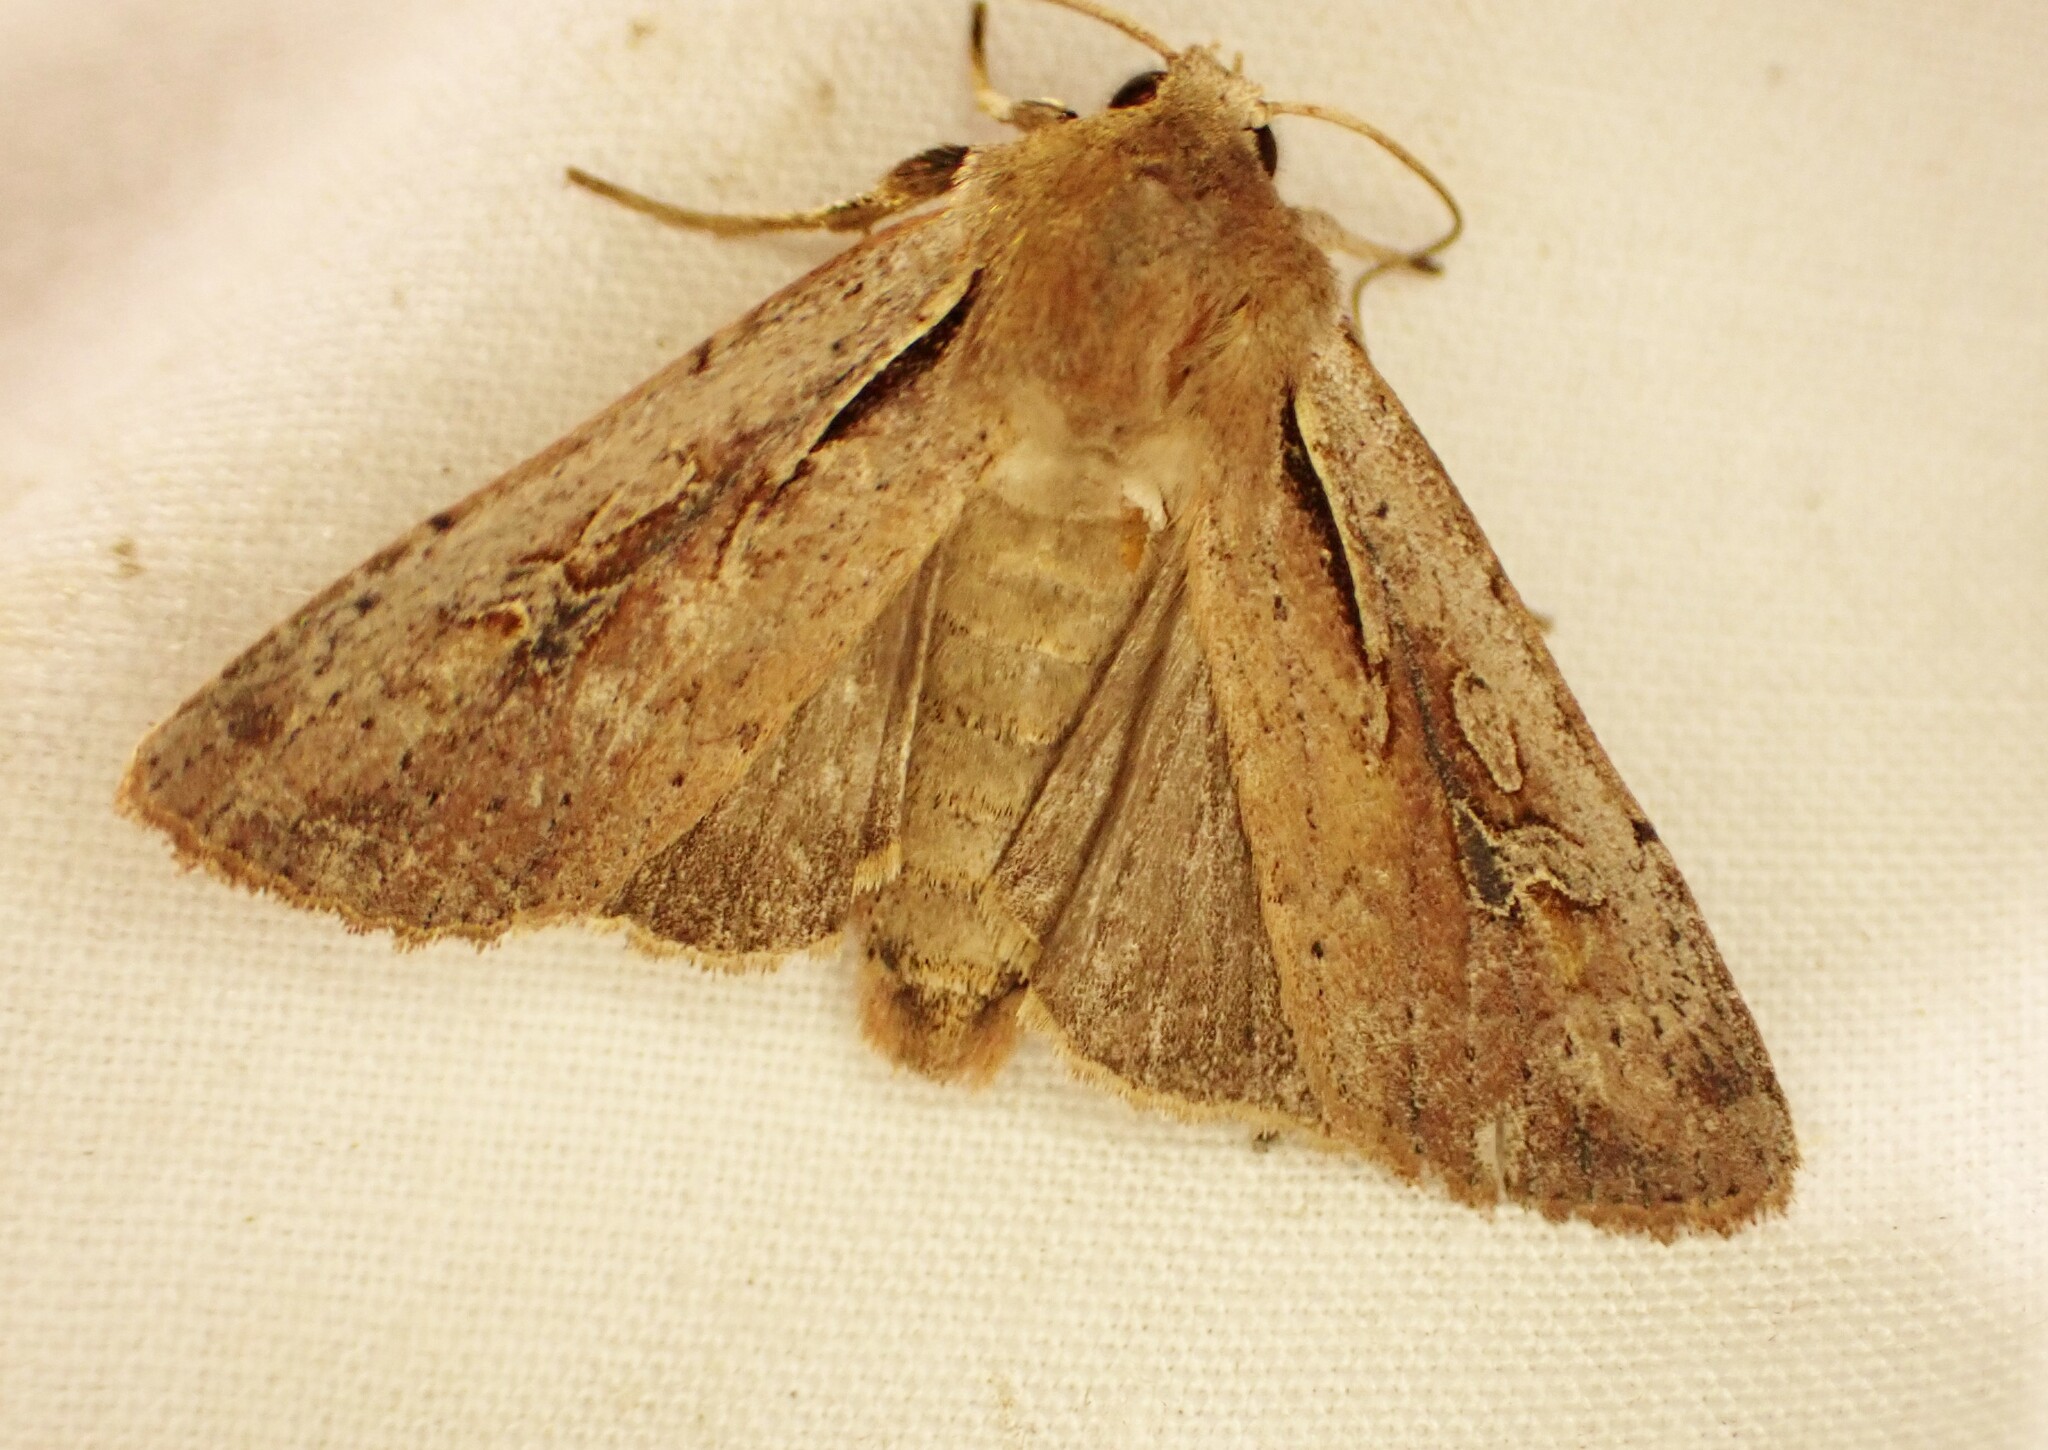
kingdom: Animalia
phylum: Arthropoda
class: Insecta
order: Lepidoptera
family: Noctuidae
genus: Ichneutica
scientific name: Ichneutica atristriga
